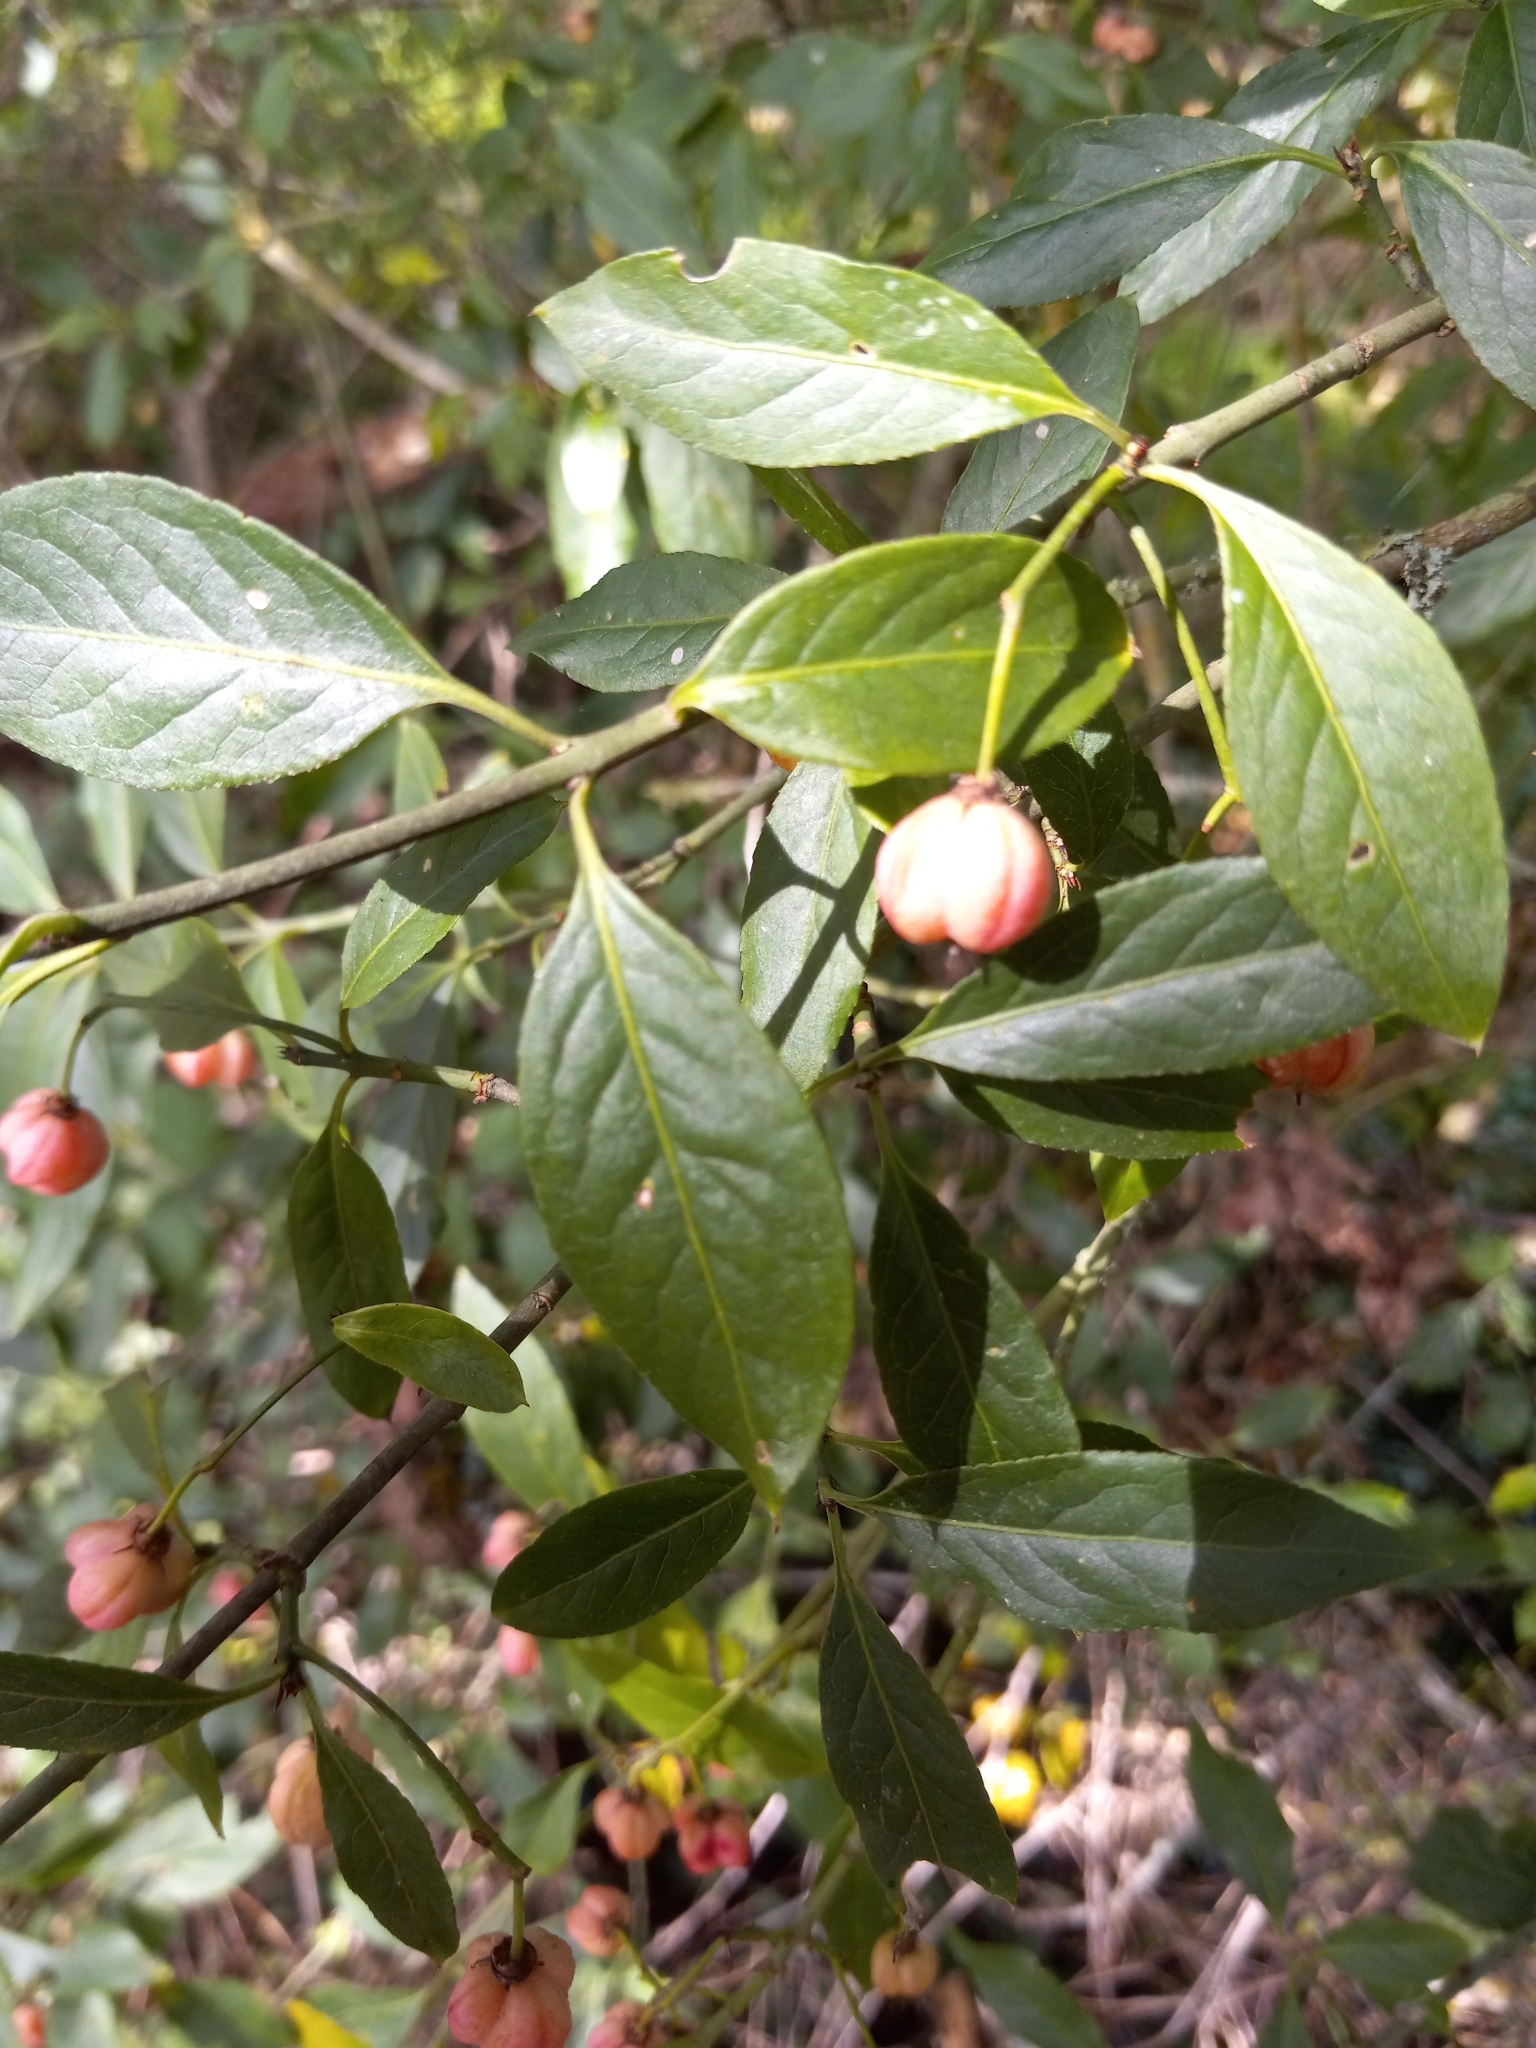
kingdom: Plantae
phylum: Tracheophyta
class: Magnoliopsida
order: Celastrales
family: Celastraceae
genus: Euonymus
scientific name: Euonymus europaeus
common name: Spindle
